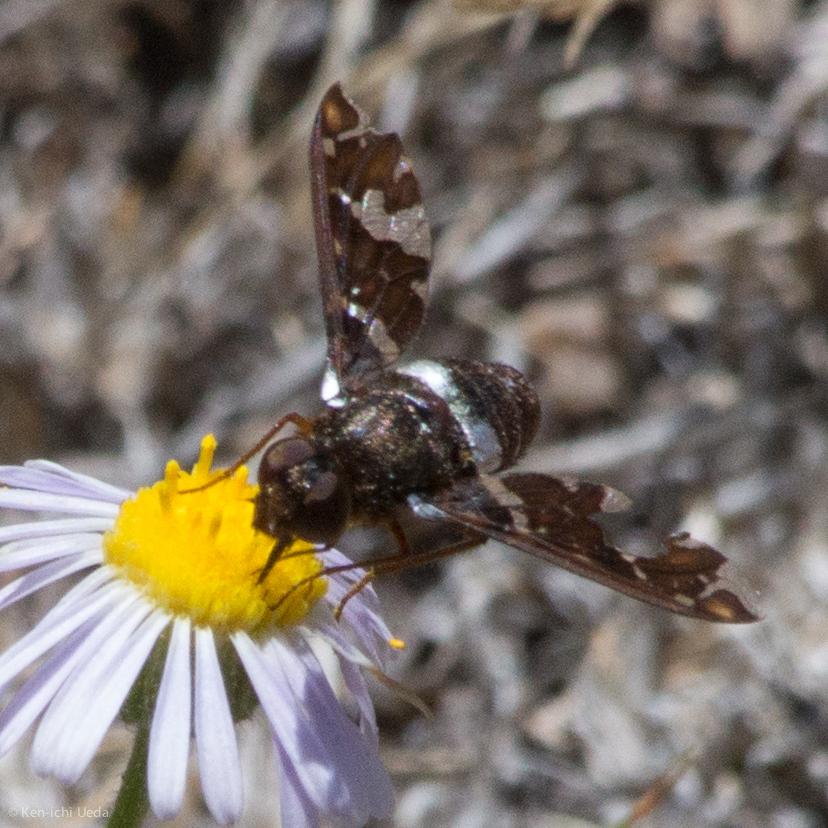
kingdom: Animalia
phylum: Arthropoda
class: Insecta
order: Diptera
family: Bombyliidae
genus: Exoprosopa
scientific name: Exoprosopa caliptera
